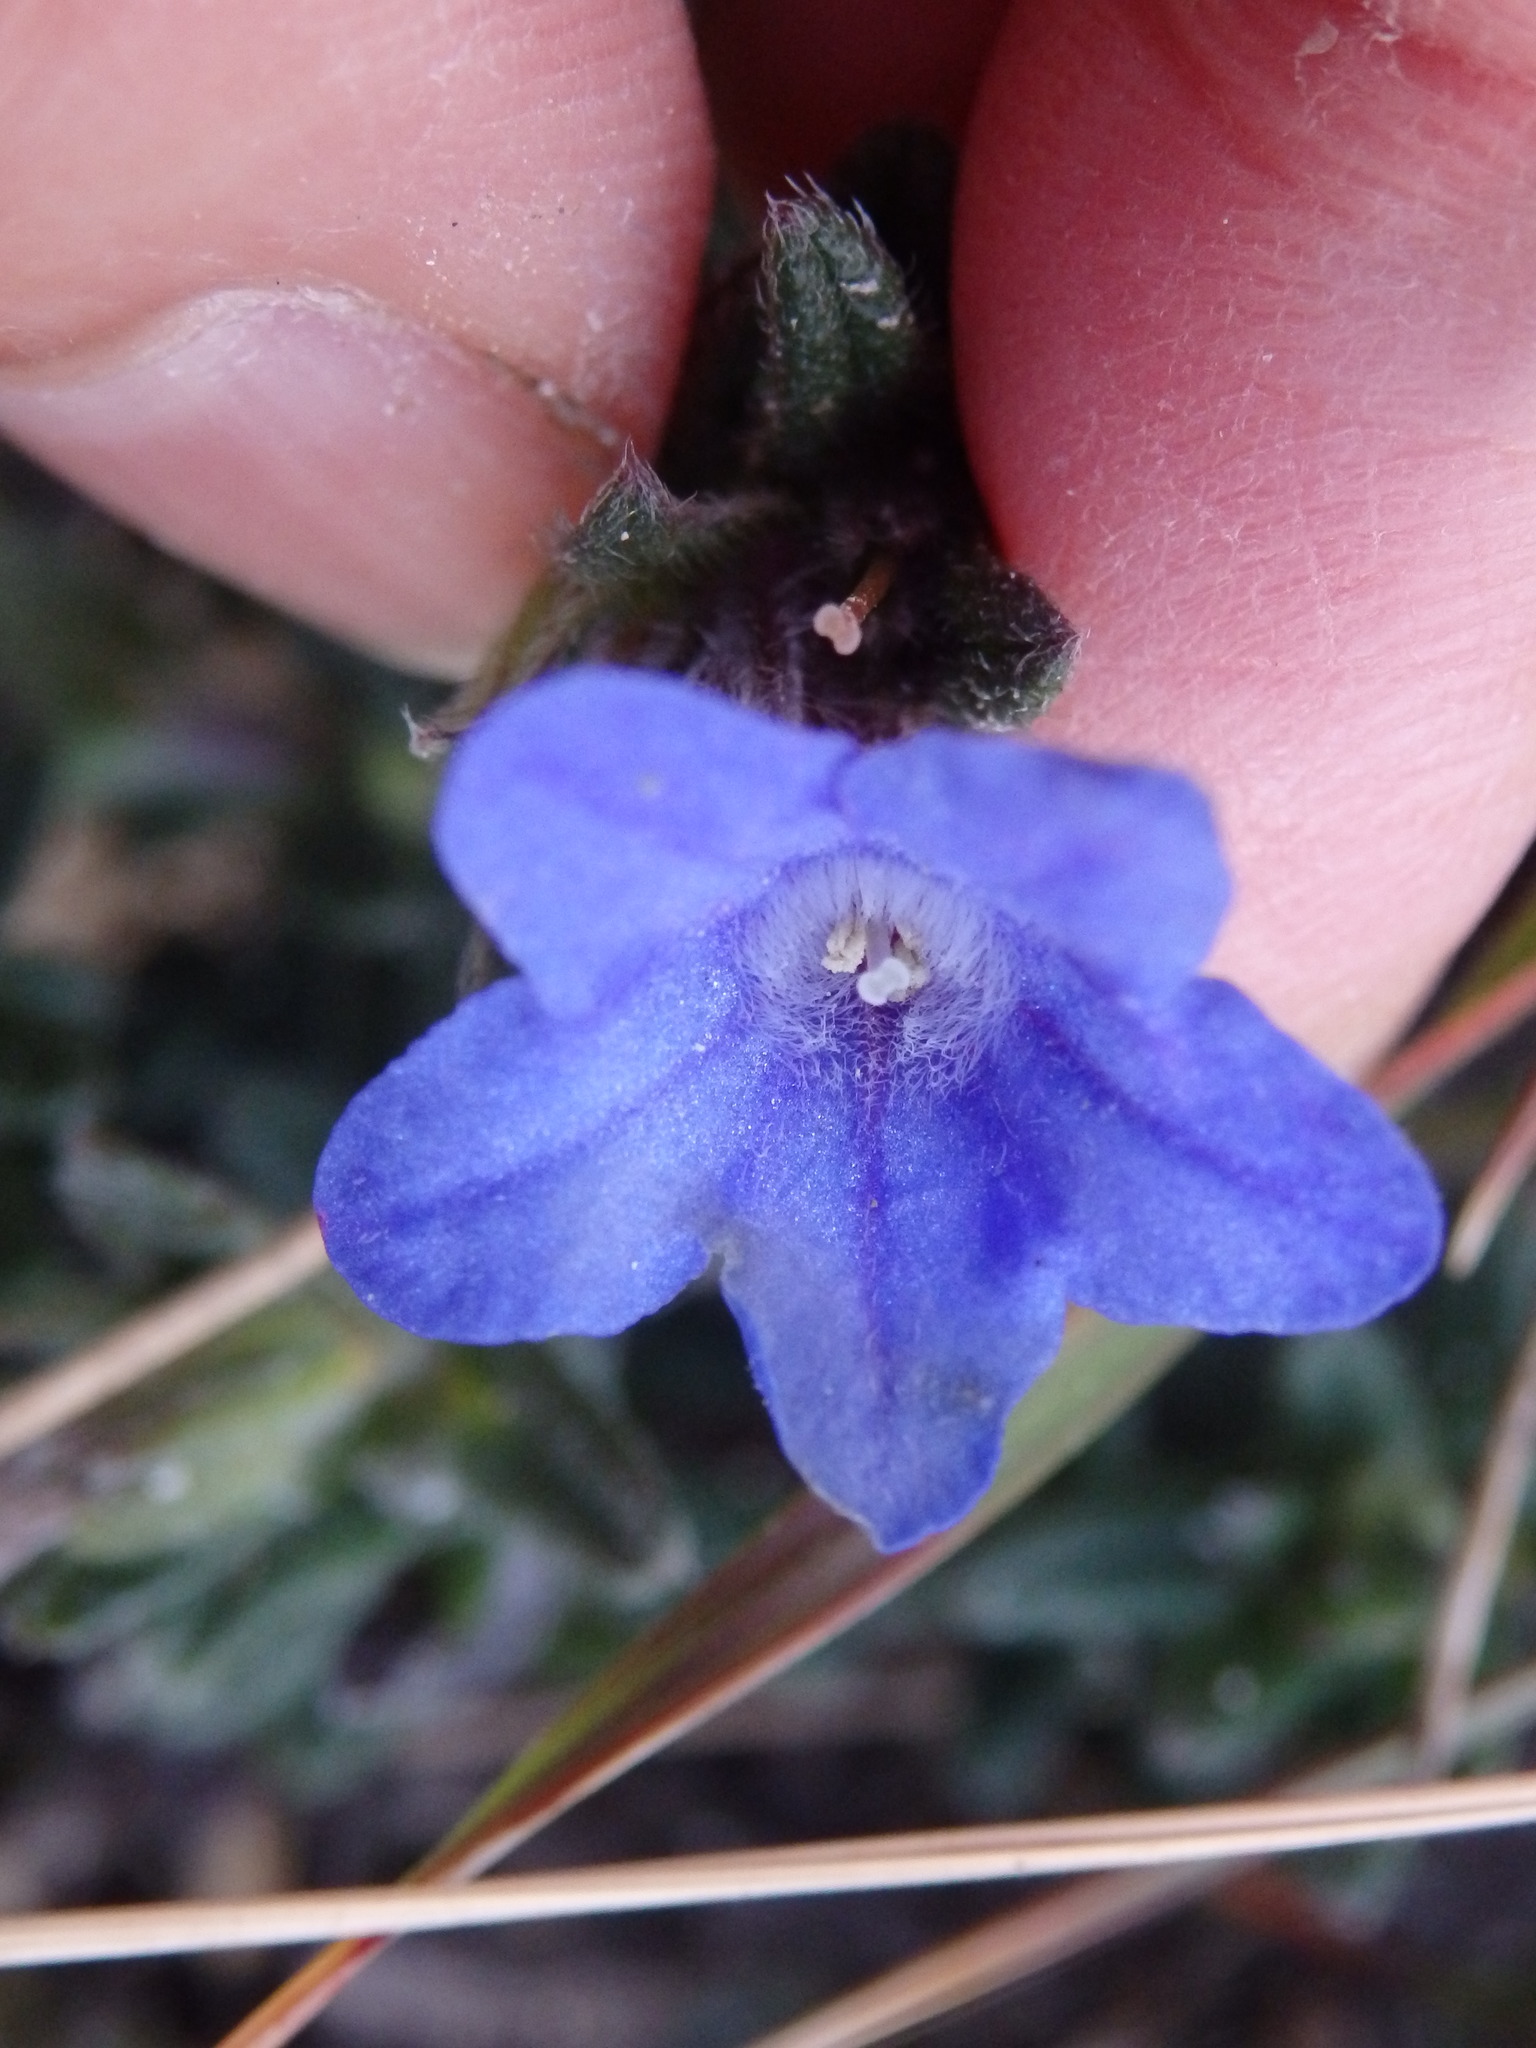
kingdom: Plantae
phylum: Tracheophyta
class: Magnoliopsida
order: Boraginales
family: Boraginaceae
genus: Glandora
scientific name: Glandora prostrata
